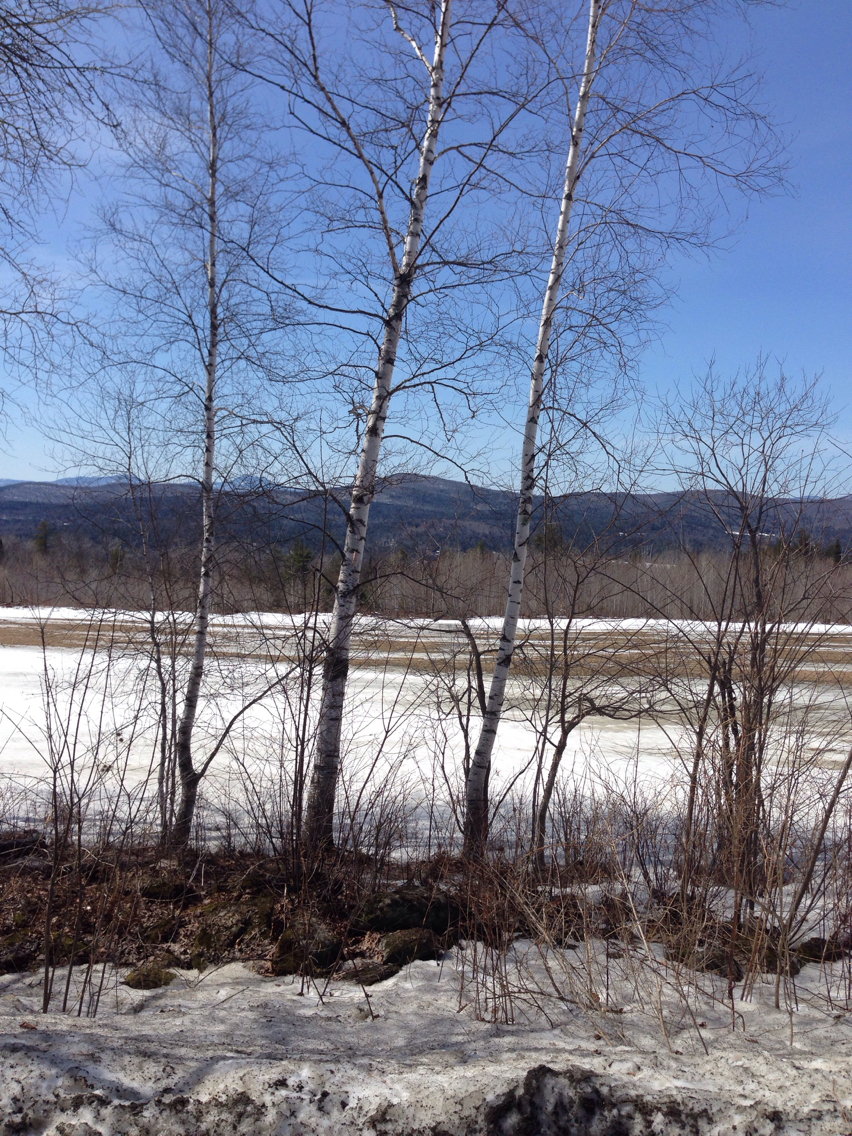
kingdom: Plantae
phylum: Tracheophyta
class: Magnoliopsida
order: Fagales
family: Betulaceae
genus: Betula
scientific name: Betula populifolia
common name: Fire birch
